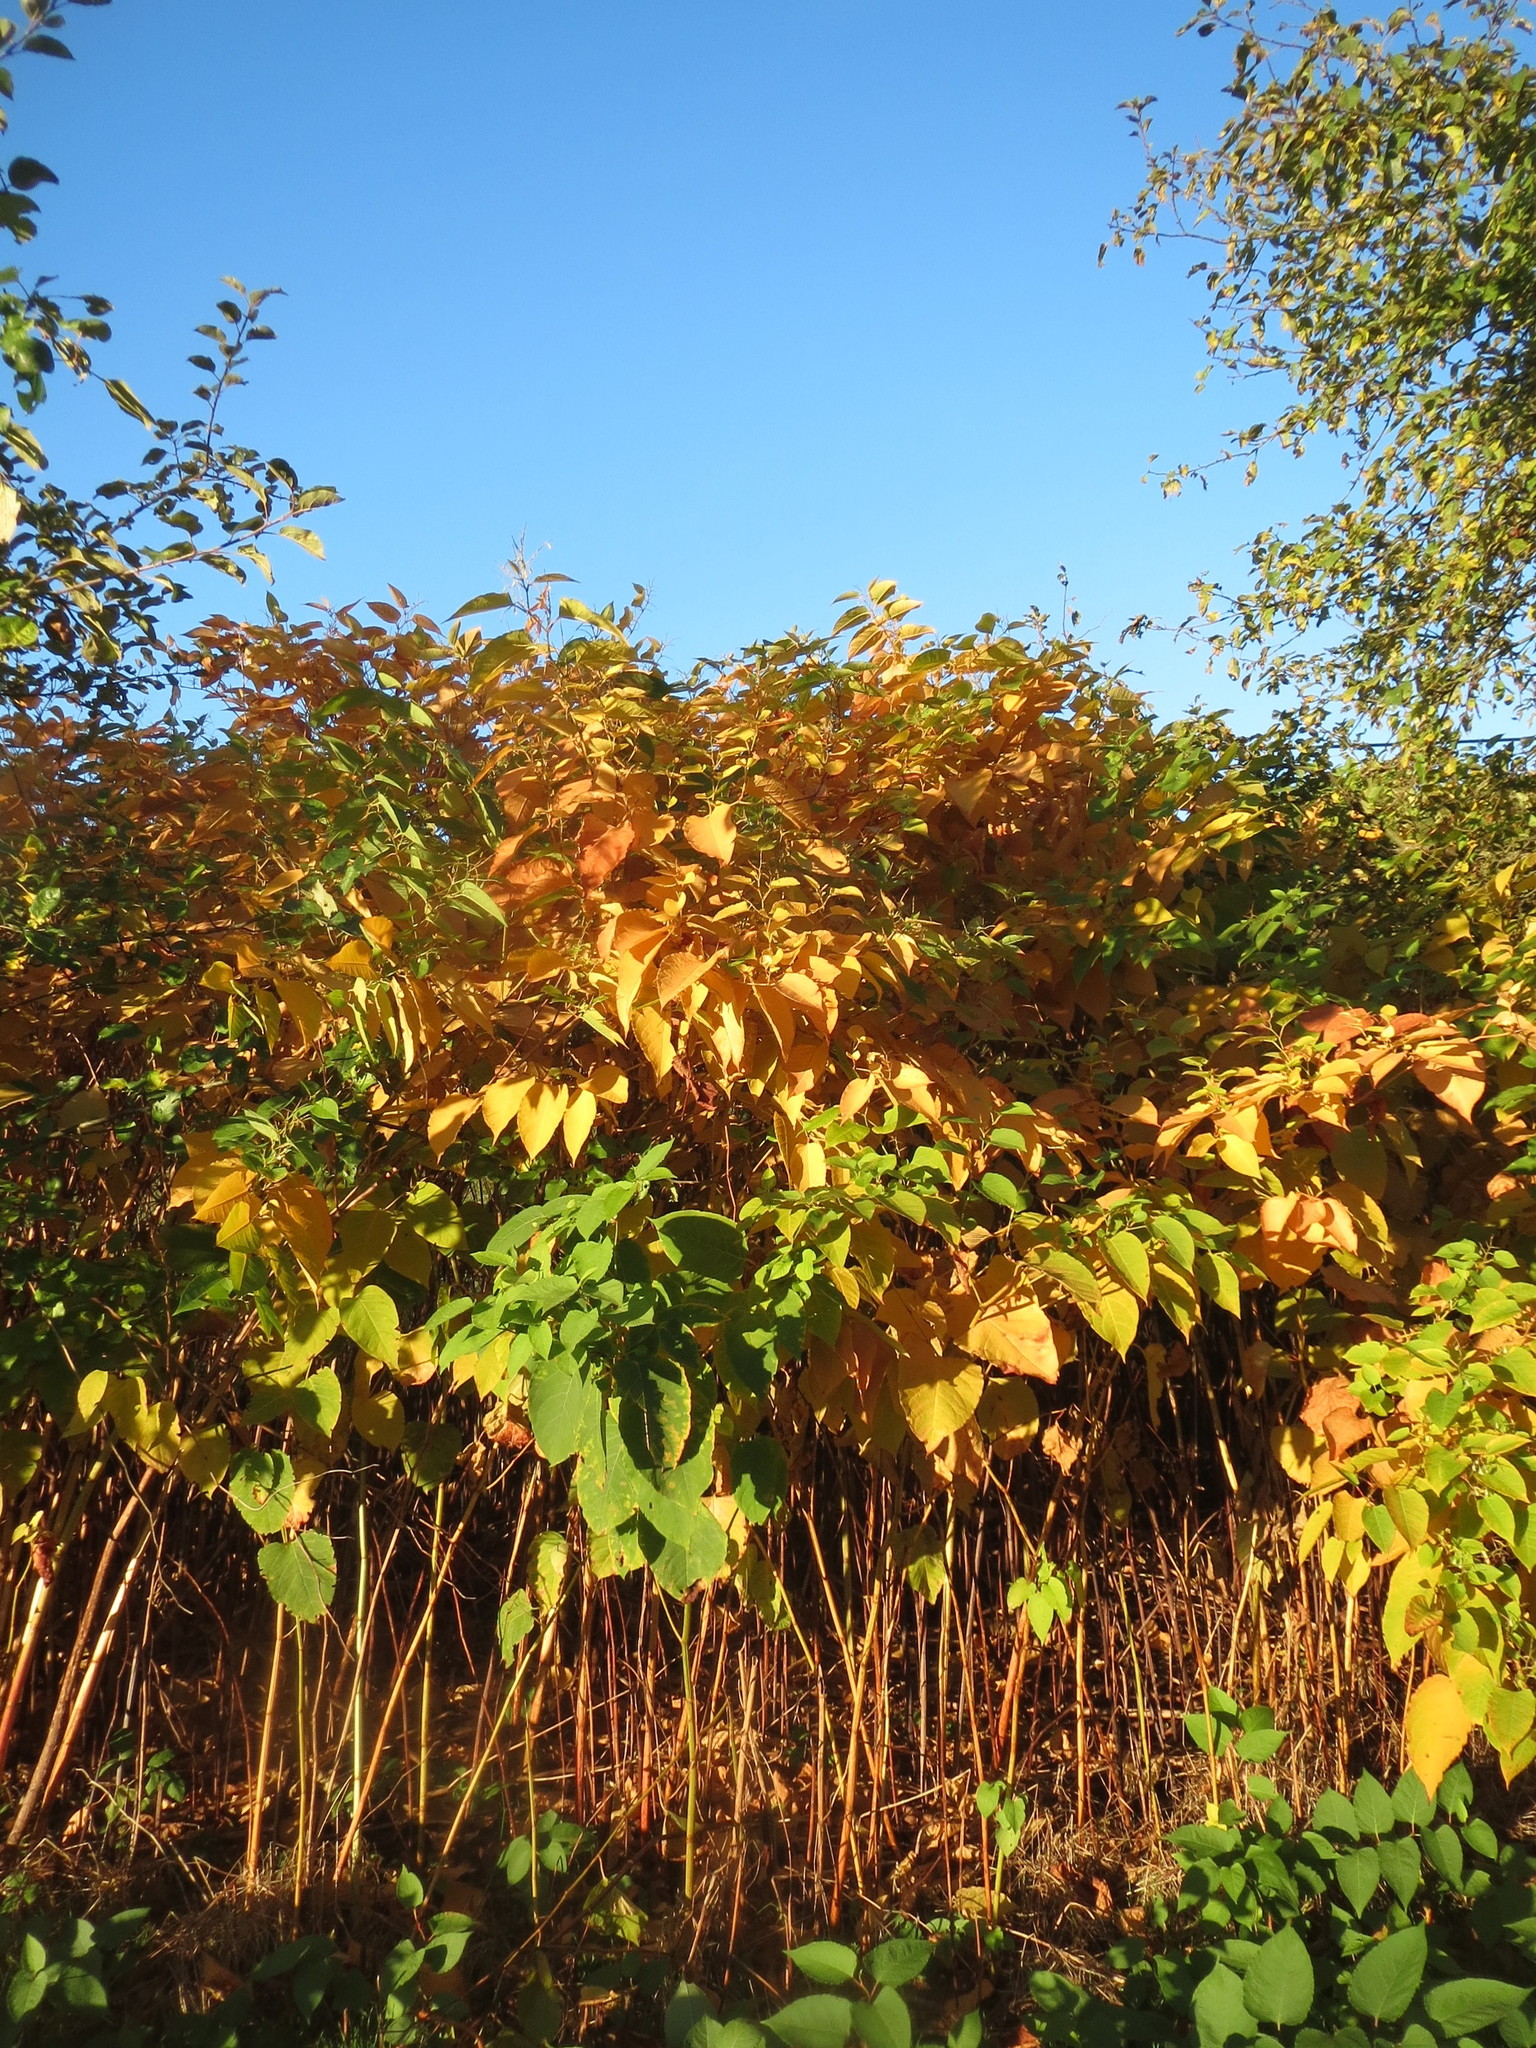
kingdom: Plantae
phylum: Tracheophyta
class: Magnoliopsida
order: Caryophyllales
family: Polygonaceae
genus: Reynoutria
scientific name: Reynoutria japonica
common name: Japanese knotweed
